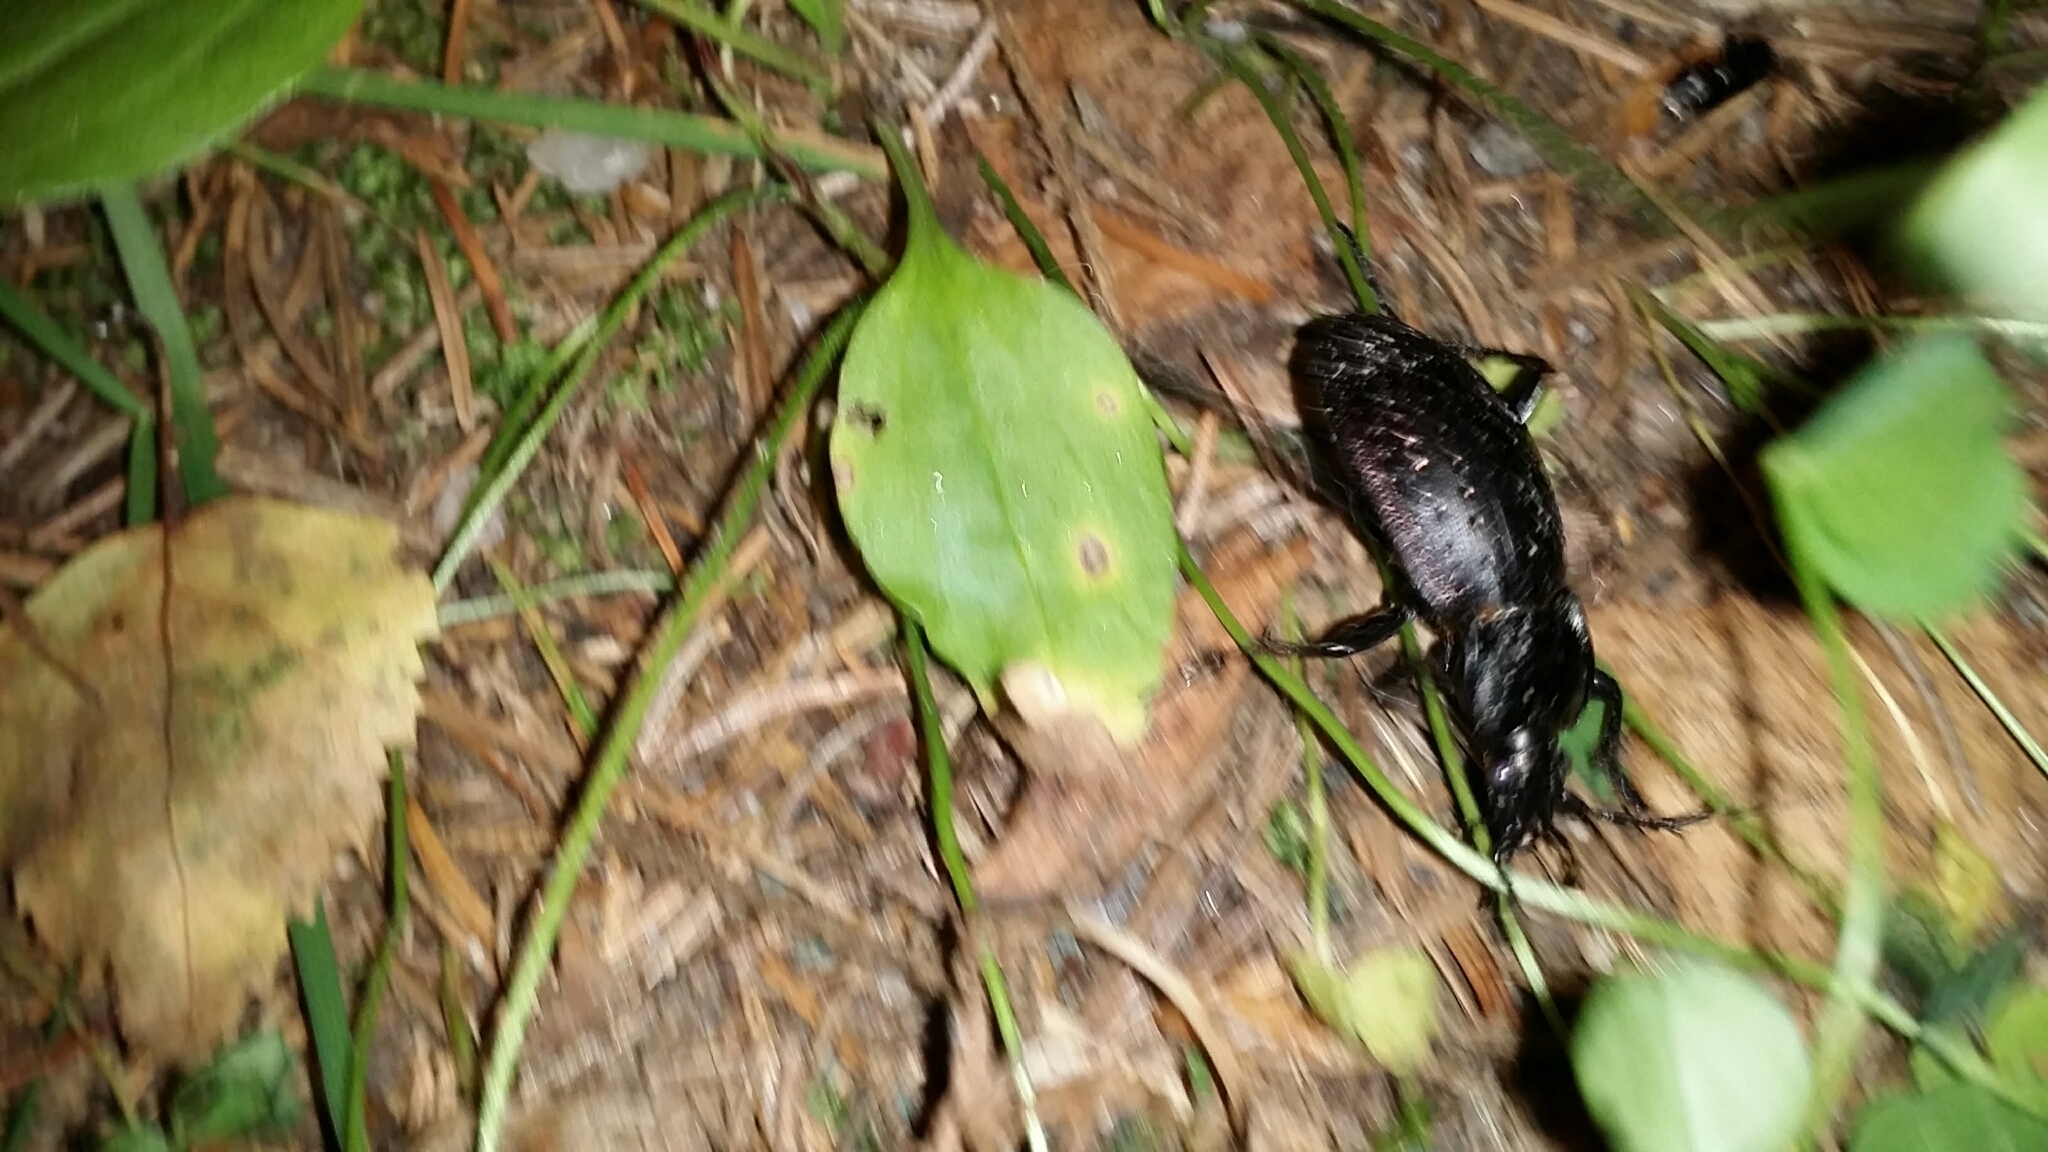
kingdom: Animalia
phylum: Arthropoda
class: Insecta
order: Coleoptera
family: Carabidae
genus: Carabus
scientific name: Carabus hortensis
